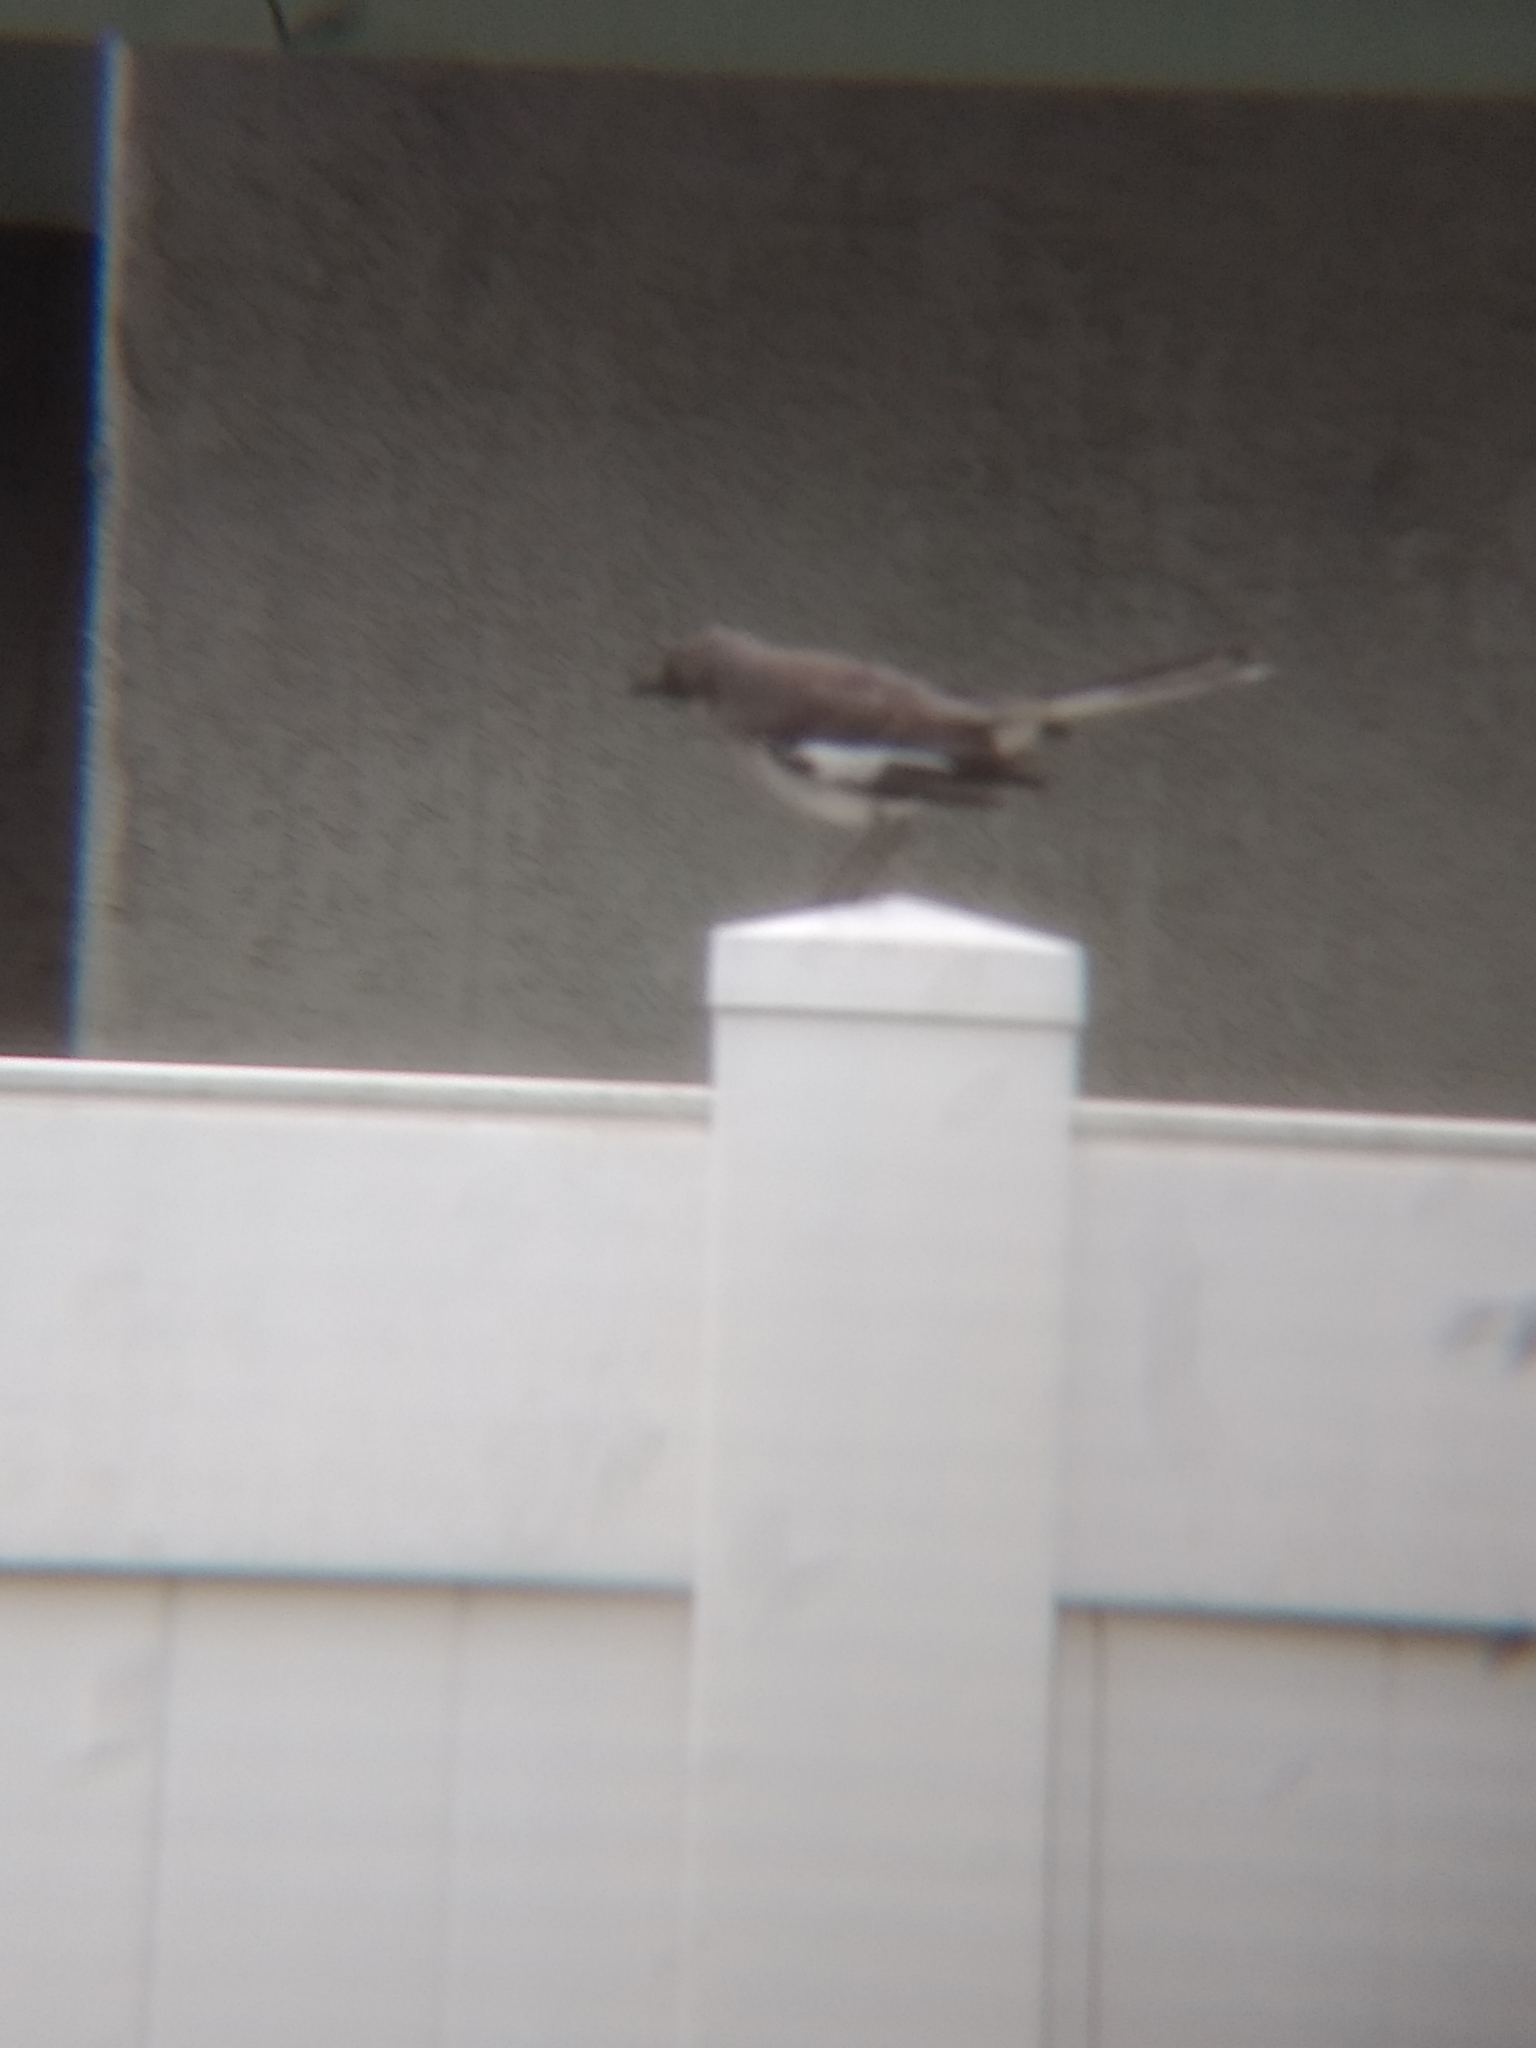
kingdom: Animalia
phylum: Chordata
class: Aves
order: Passeriformes
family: Mimidae
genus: Mimus
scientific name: Mimus polyglottos
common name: Northern mockingbird
